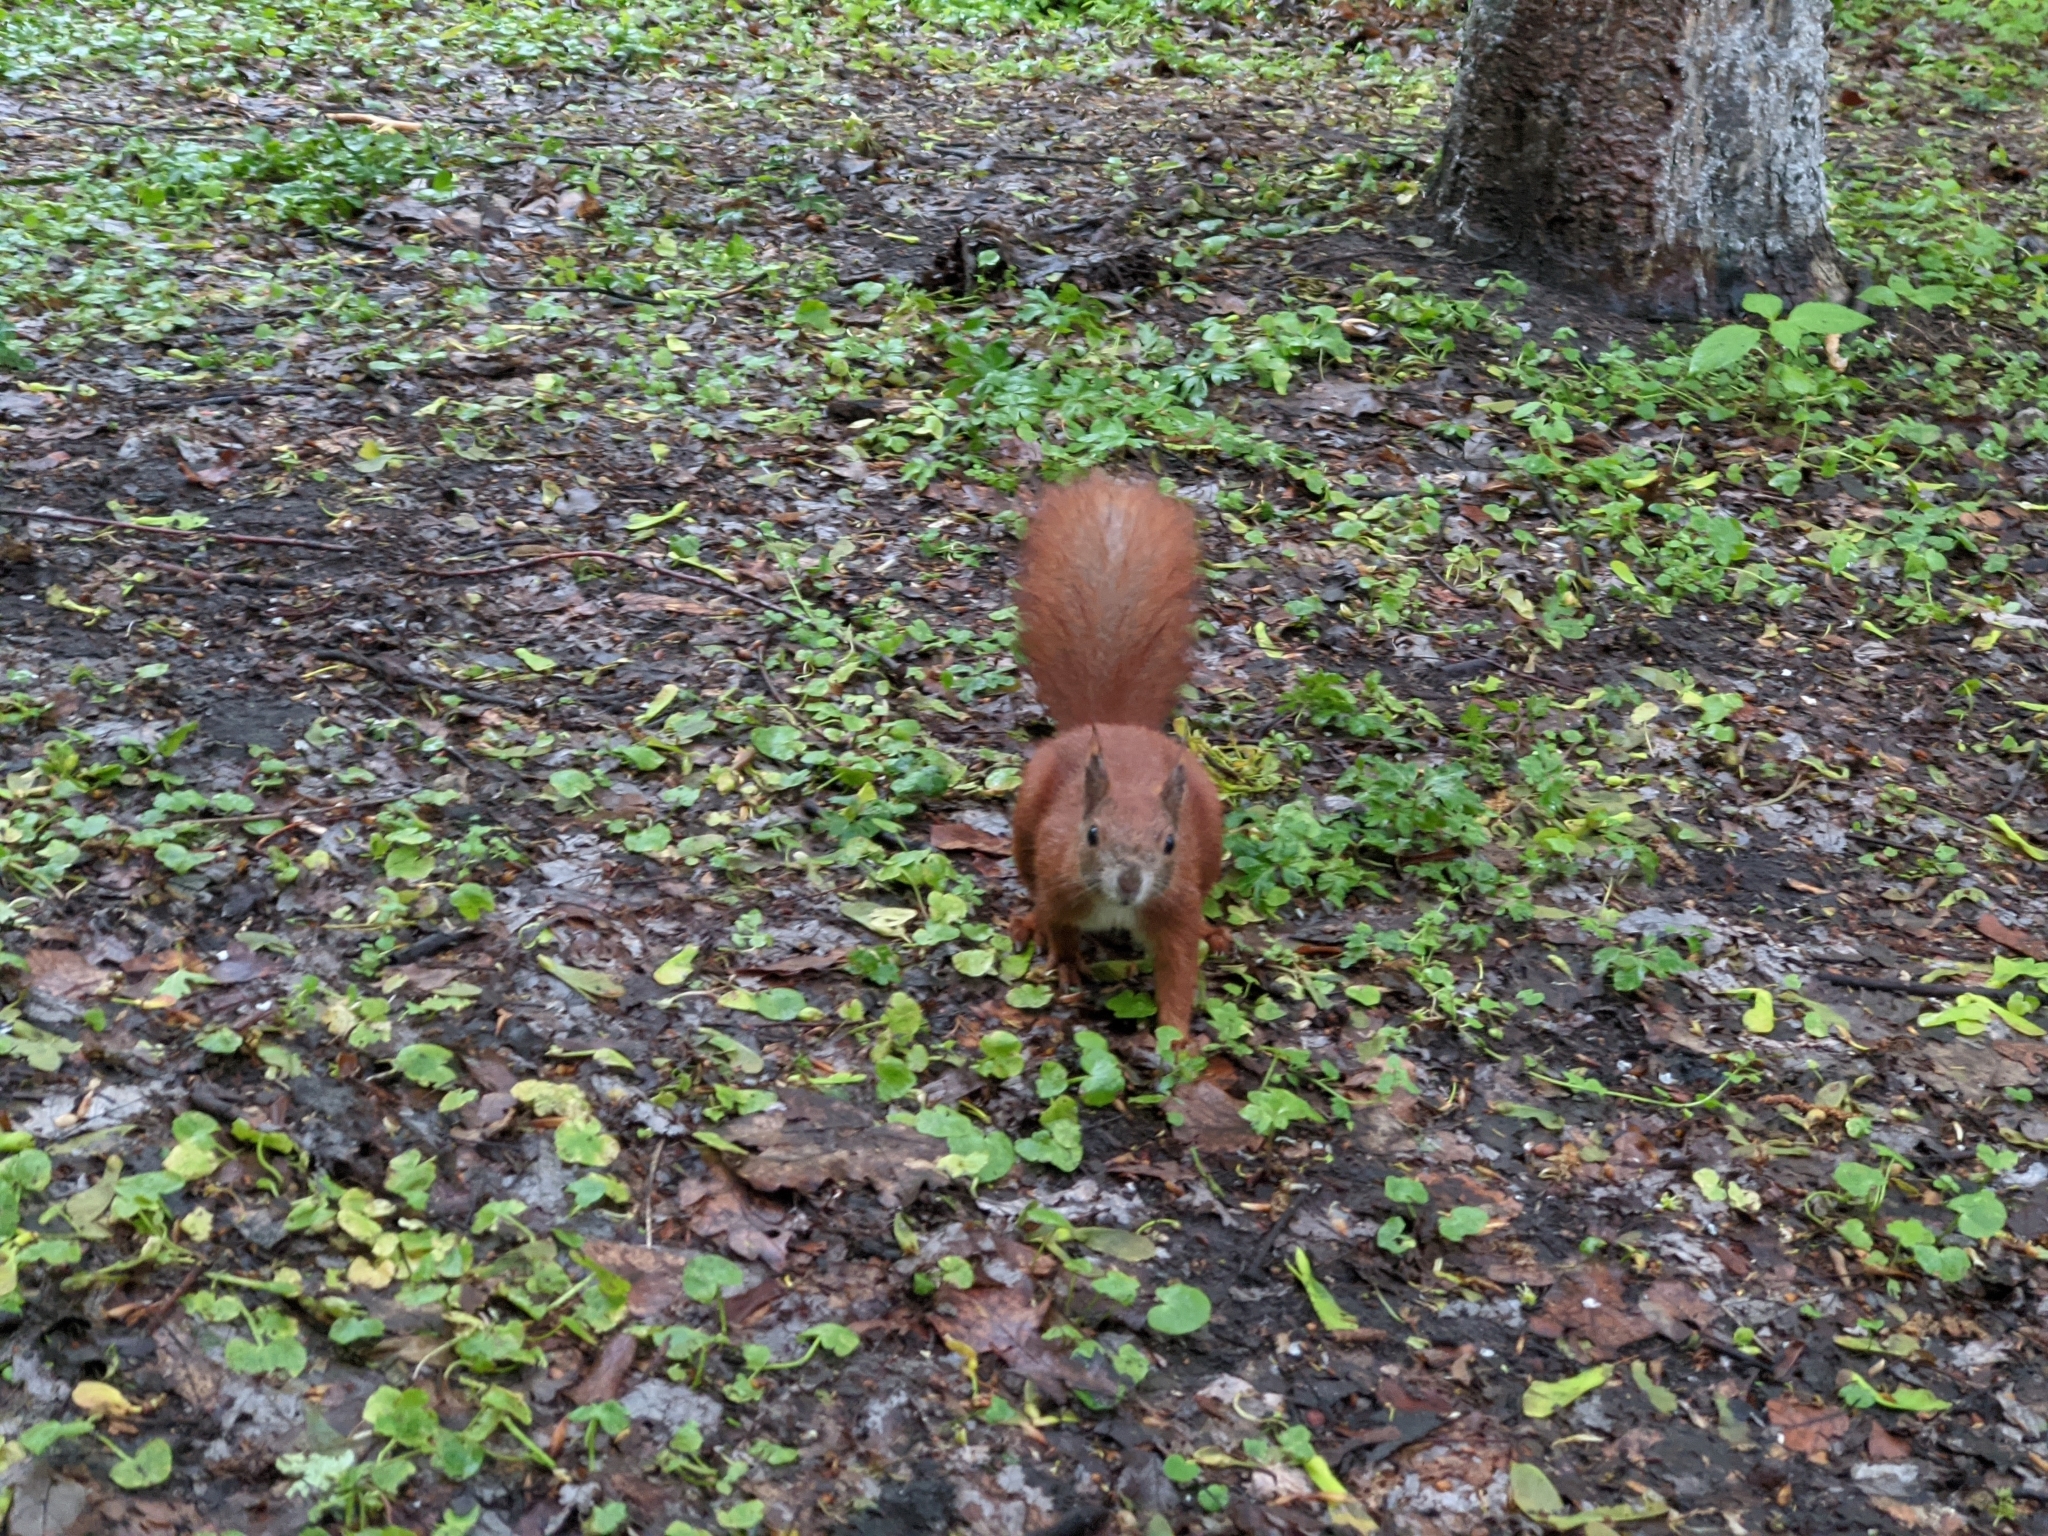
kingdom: Animalia
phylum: Chordata
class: Mammalia
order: Rodentia
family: Sciuridae
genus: Sciurus
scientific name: Sciurus vulgaris
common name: Eurasian red squirrel
